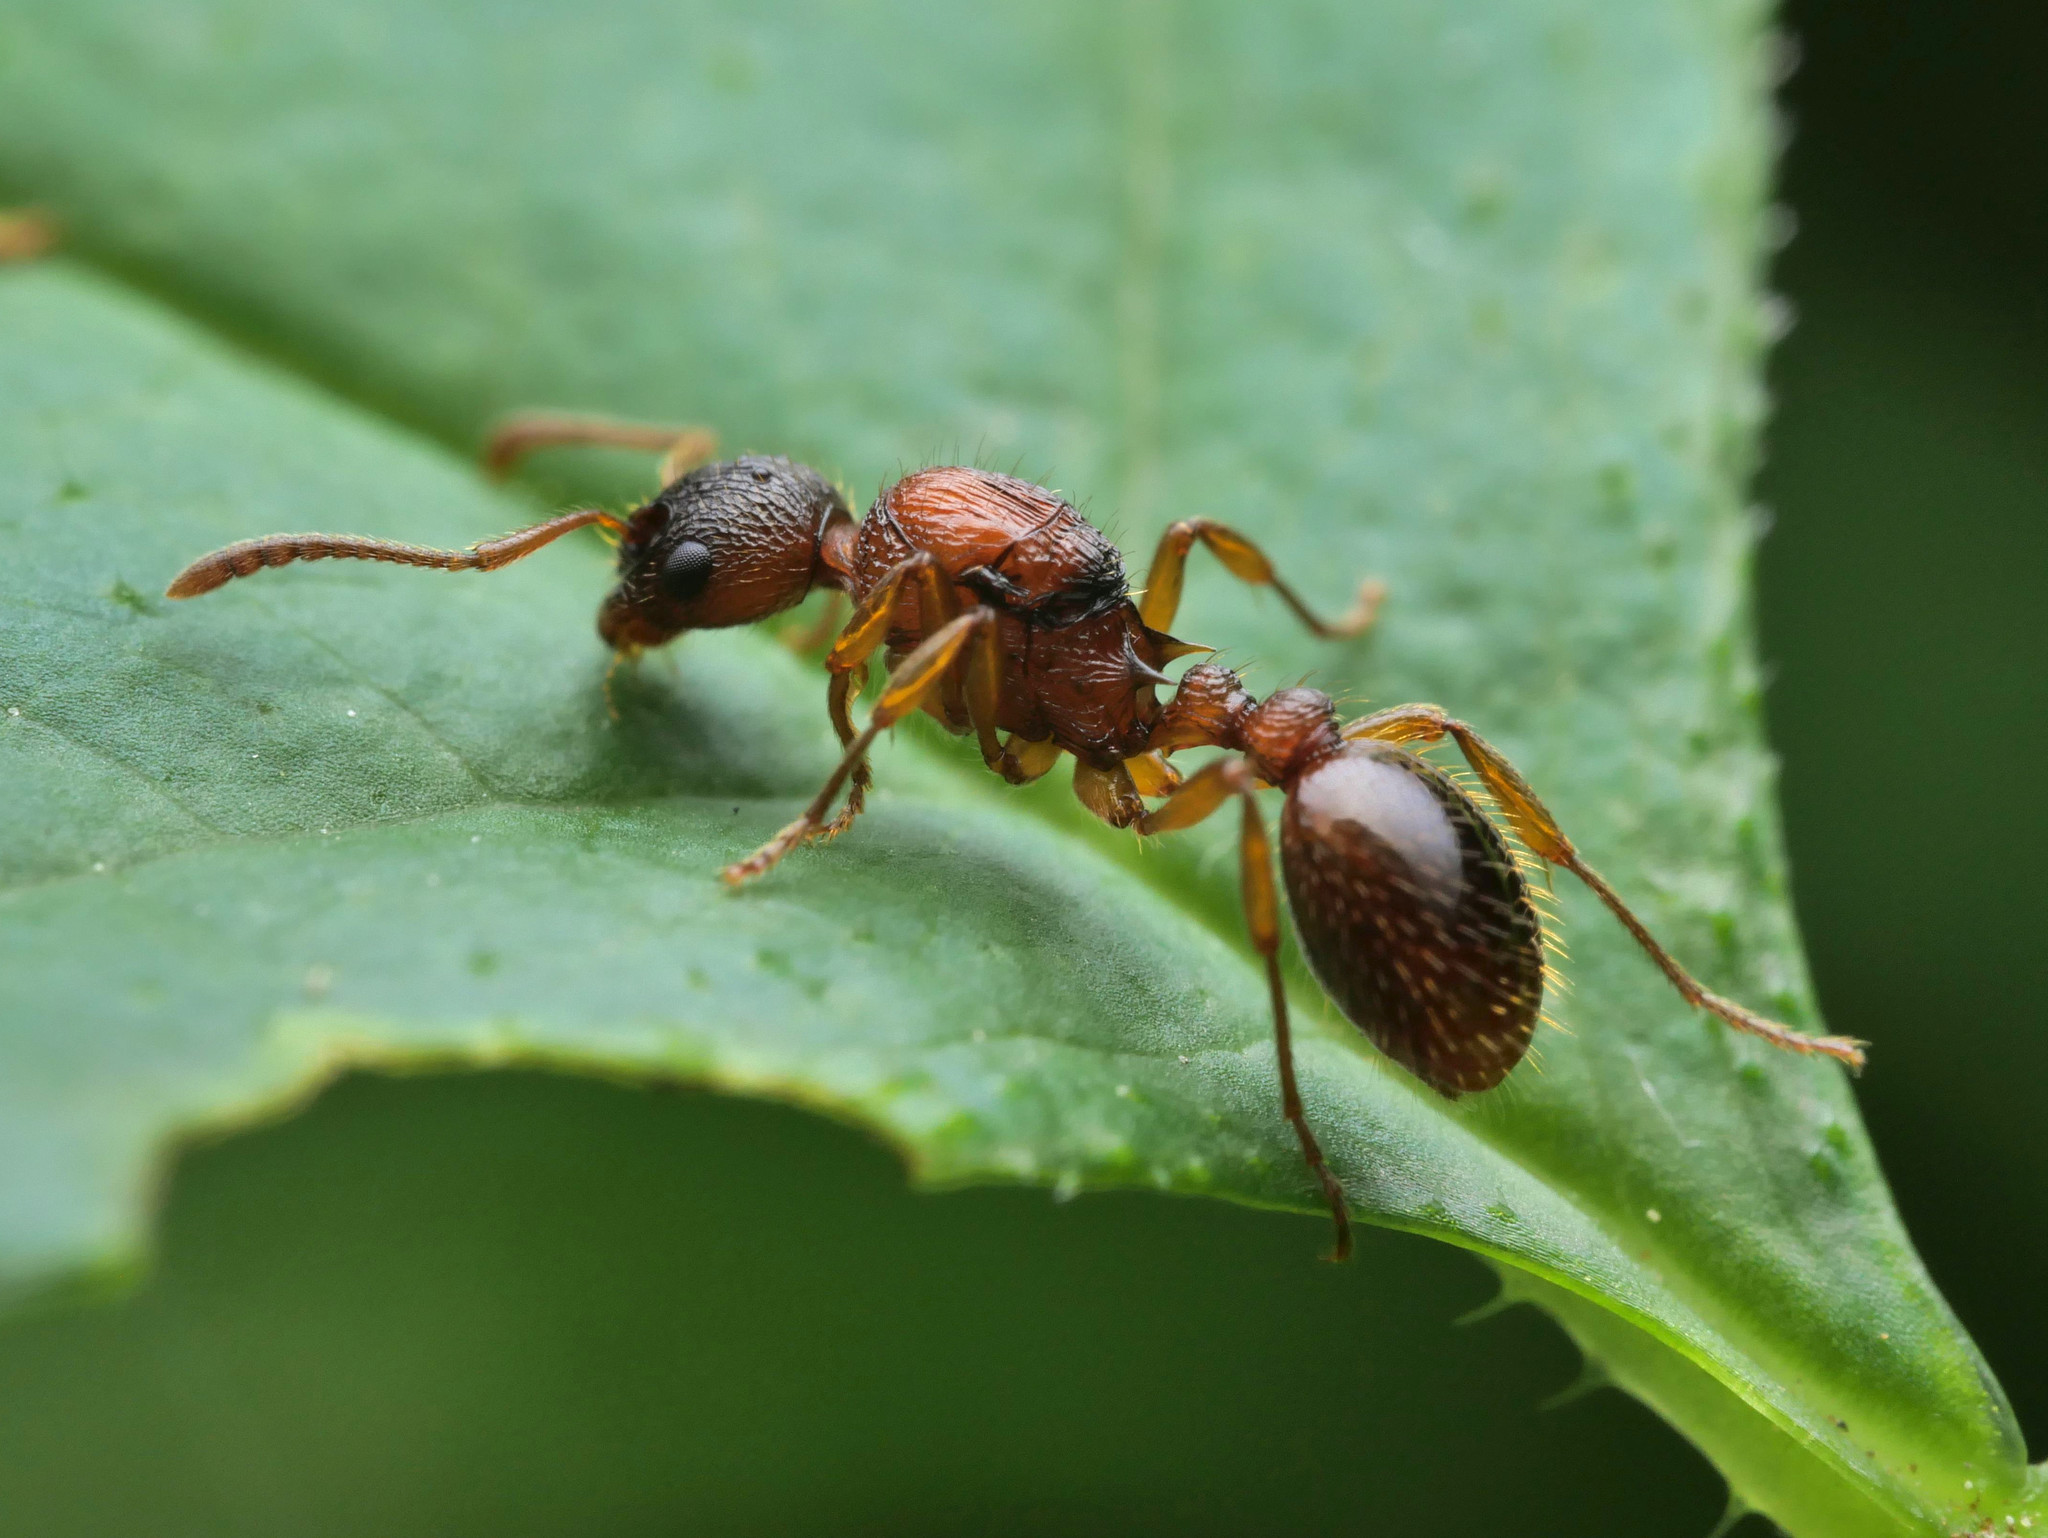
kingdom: Animalia
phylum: Arthropoda
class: Insecta
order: Hymenoptera
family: Formicidae
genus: Myrmica
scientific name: Myrmica ruginodis
